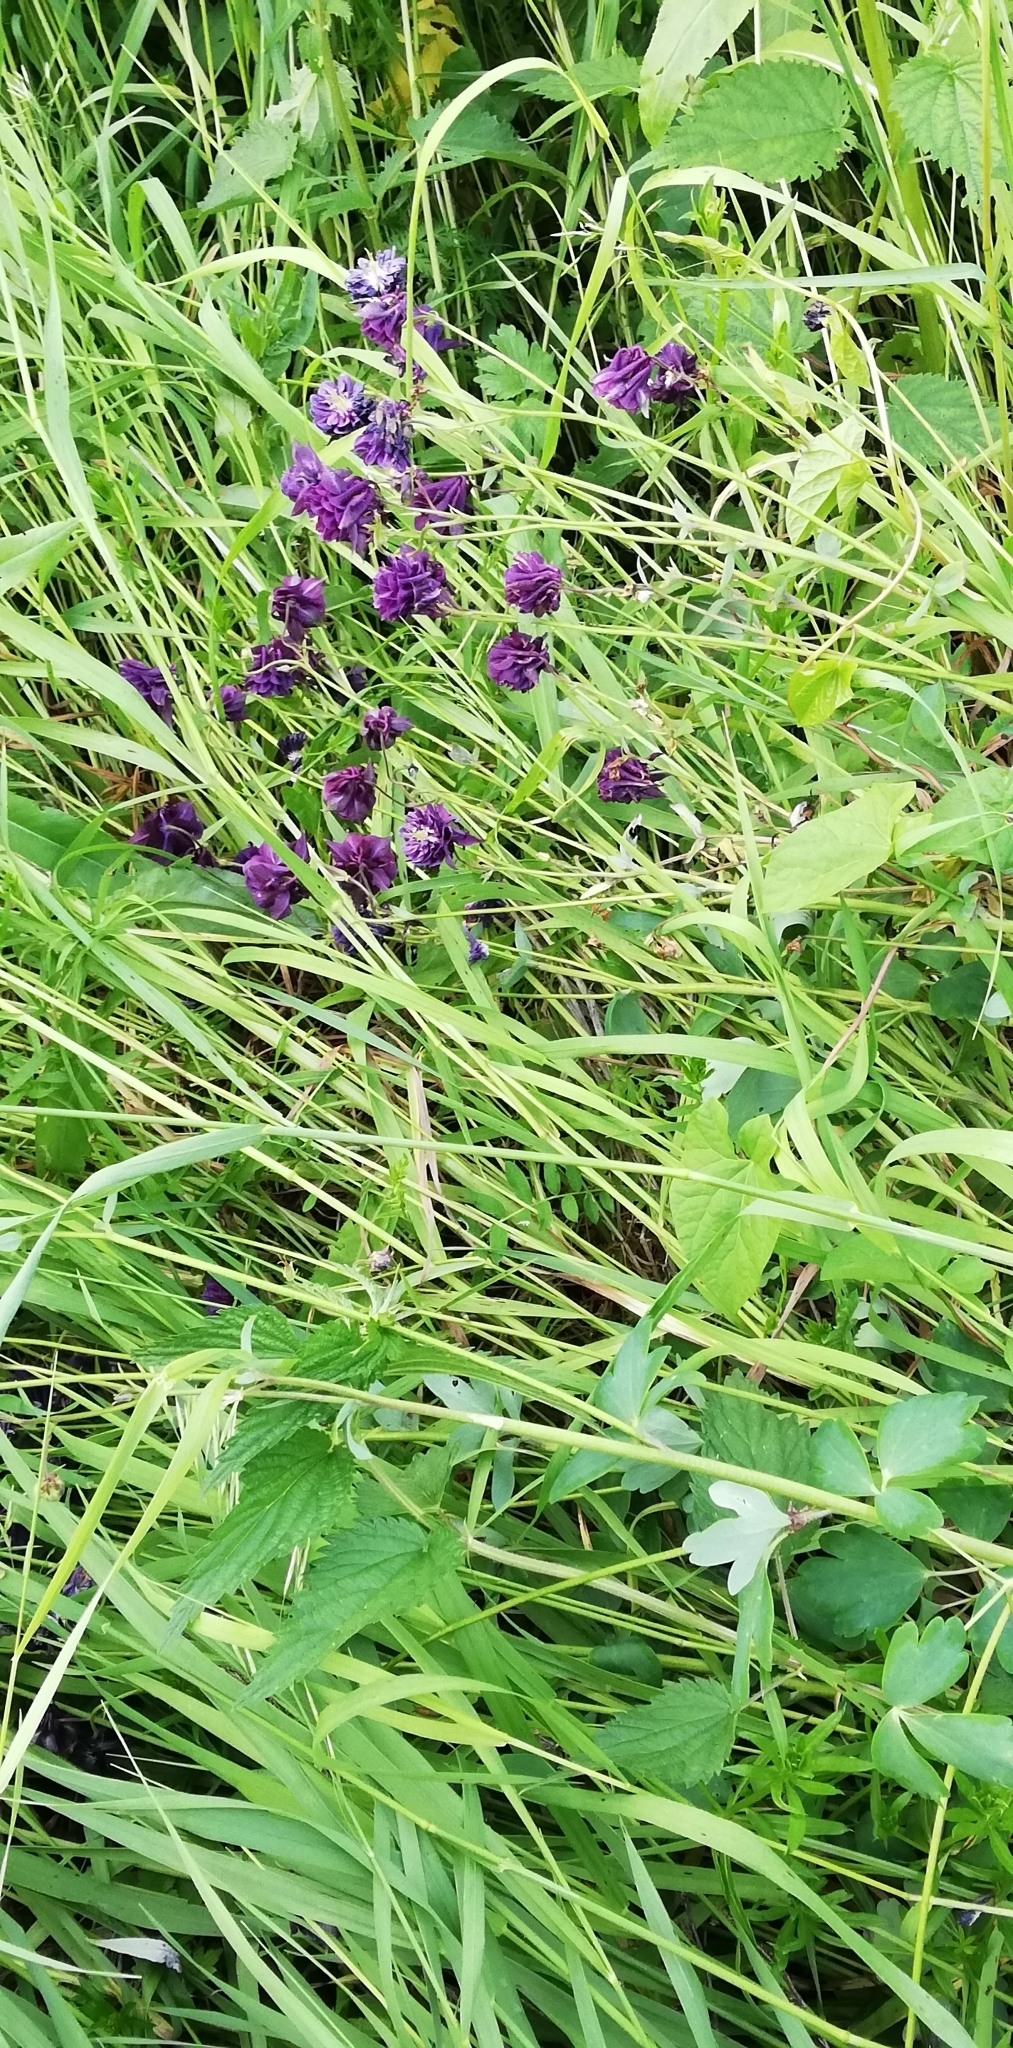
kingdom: Plantae
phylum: Tracheophyta
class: Magnoliopsida
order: Ranunculales
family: Ranunculaceae
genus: Aquilegia
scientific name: Aquilegia vulgaris
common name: Columbine
